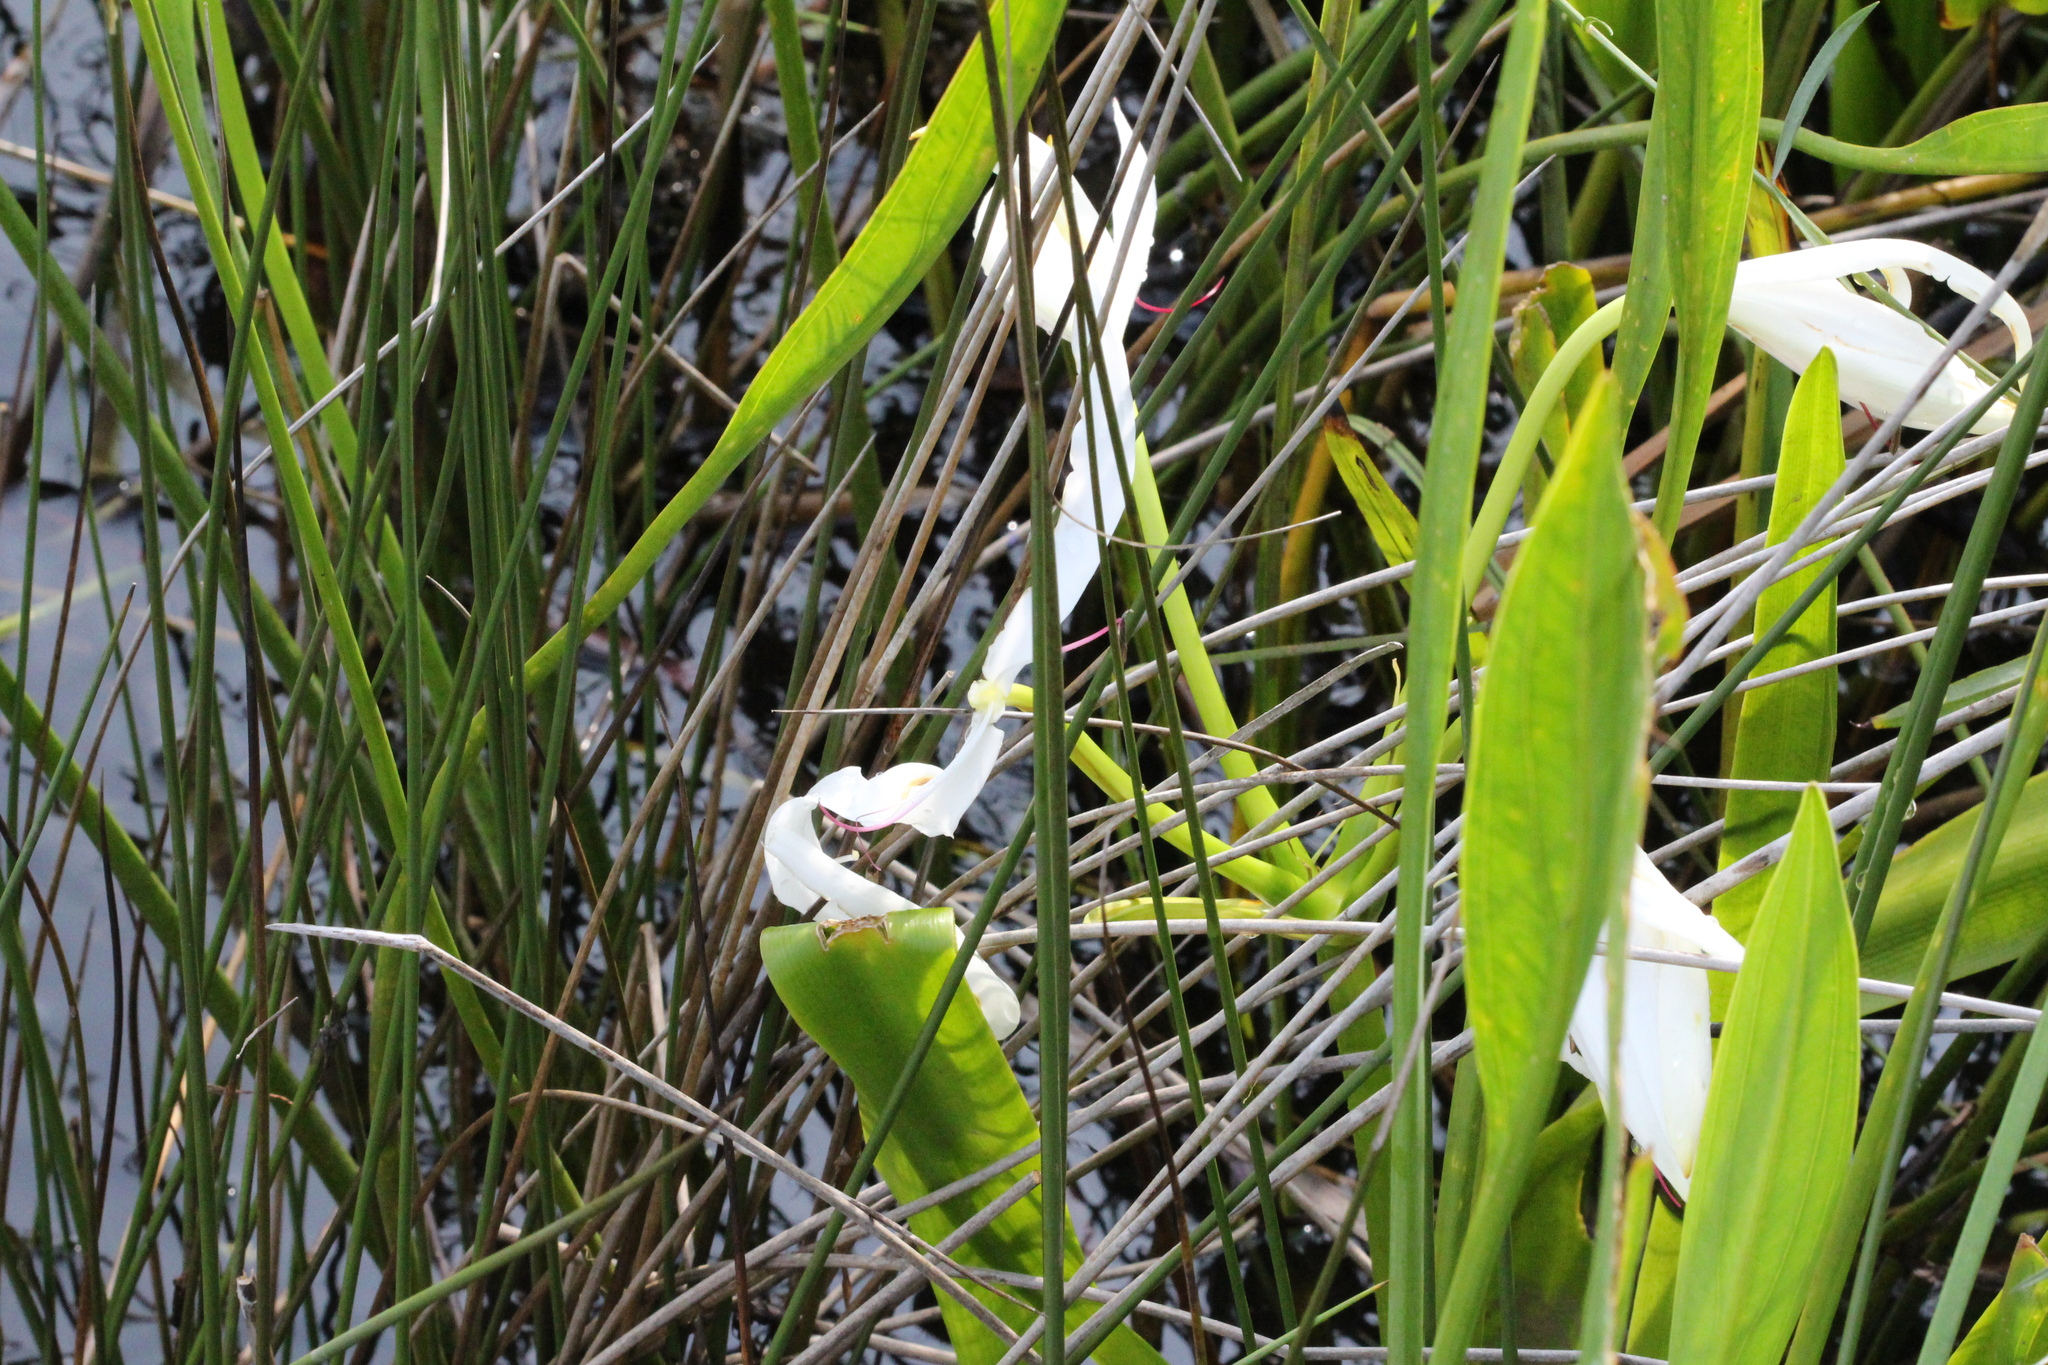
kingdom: Plantae
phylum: Tracheophyta
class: Liliopsida
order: Asparagales
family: Amaryllidaceae
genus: Crinum
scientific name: Crinum americanum
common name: Florida swamp-lily
